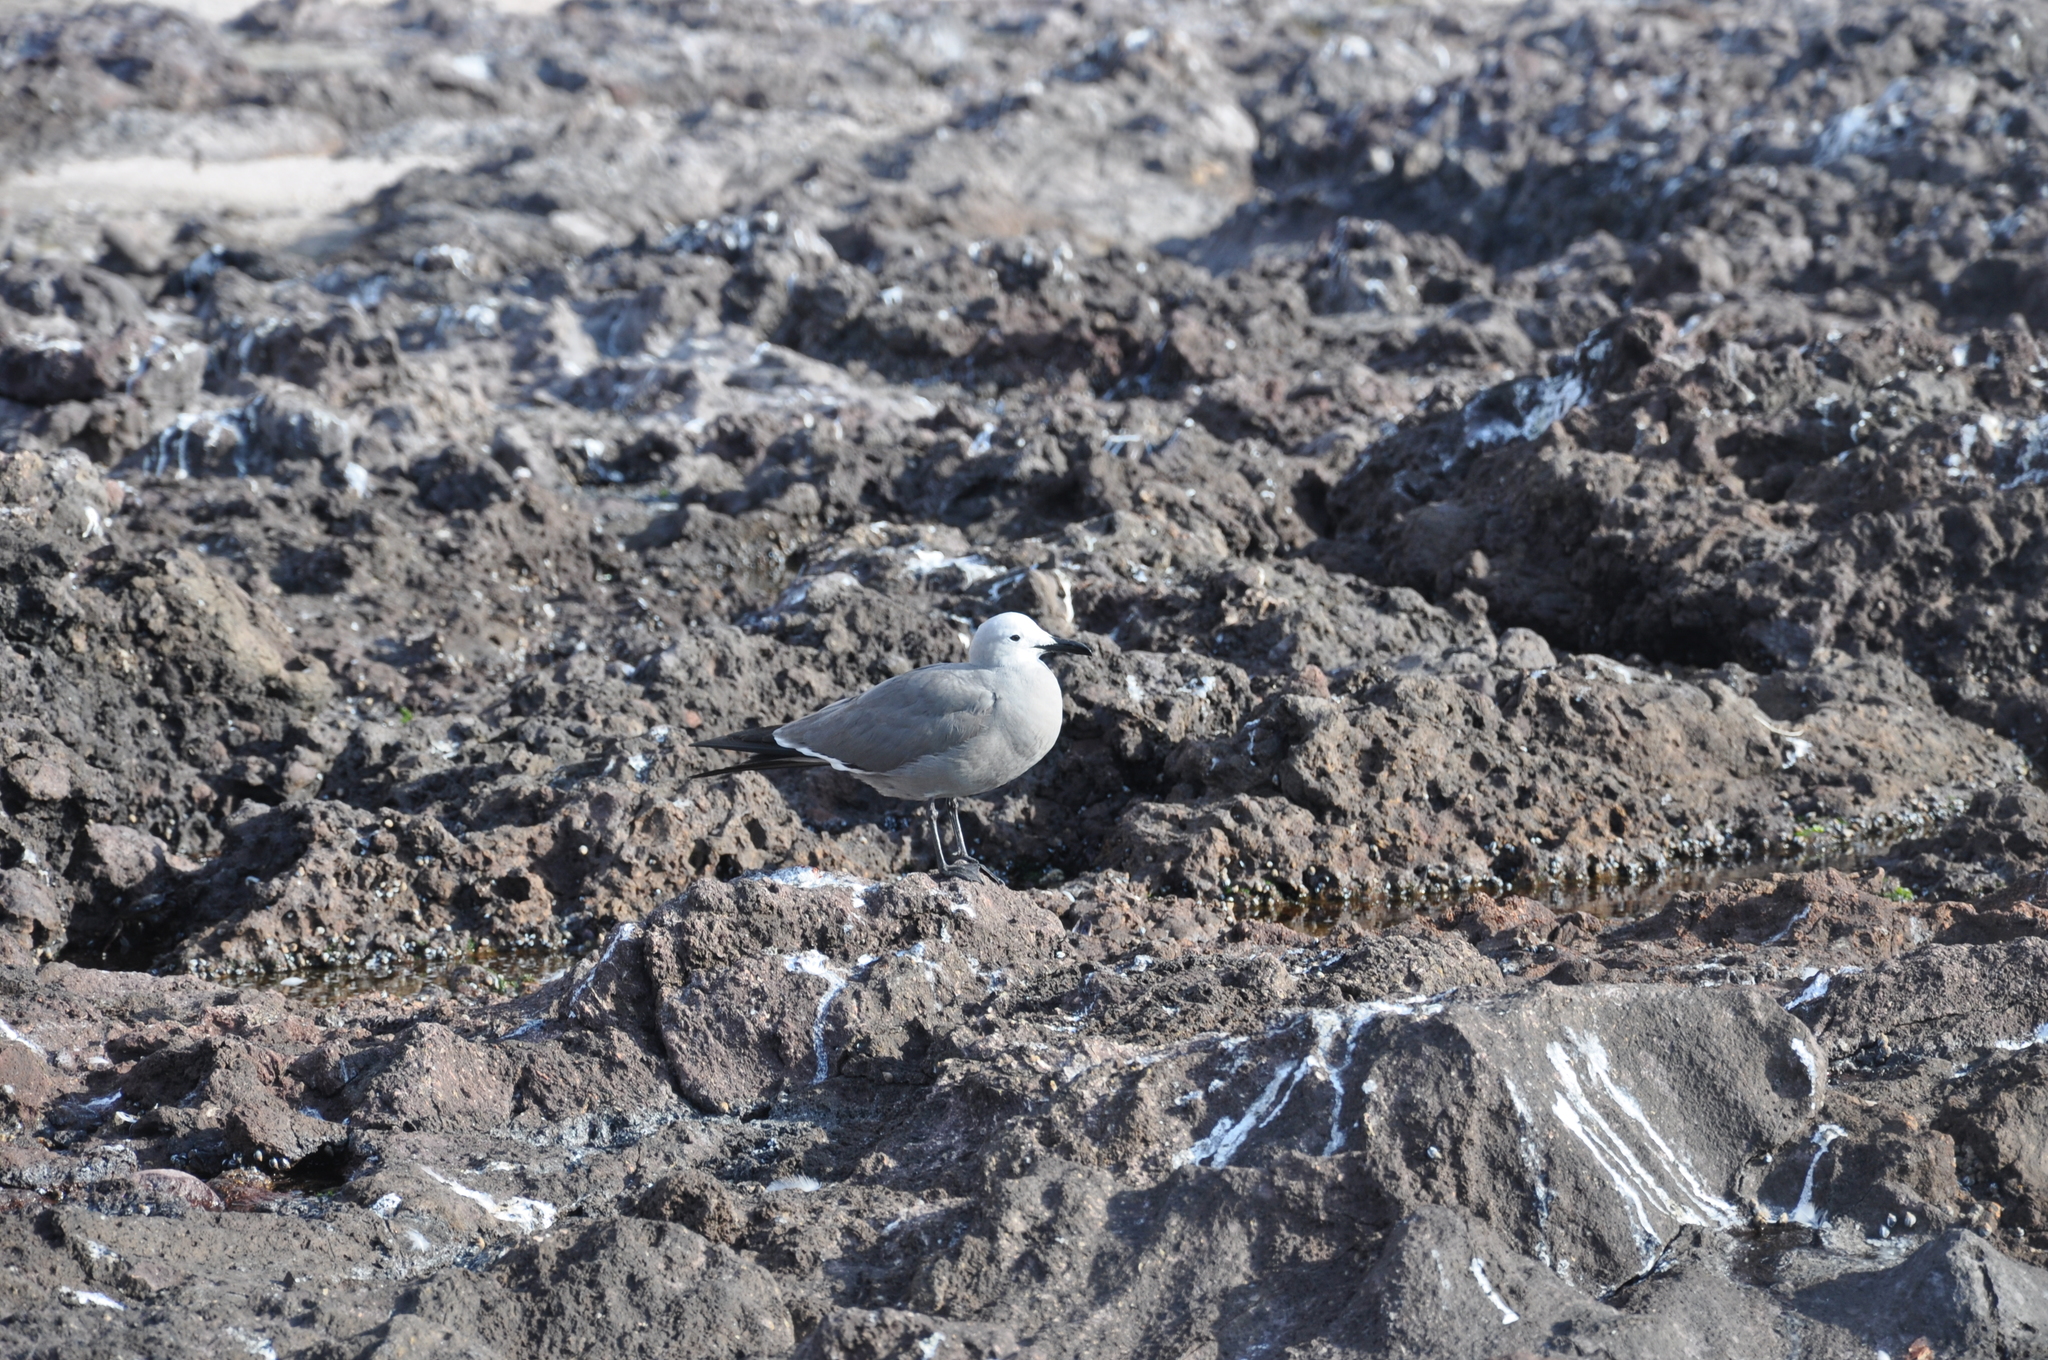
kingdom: Animalia
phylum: Chordata
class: Aves
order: Charadriiformes
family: Laridae
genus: Leucophaeus
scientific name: Leucophaeus modestus
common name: Gray gull
